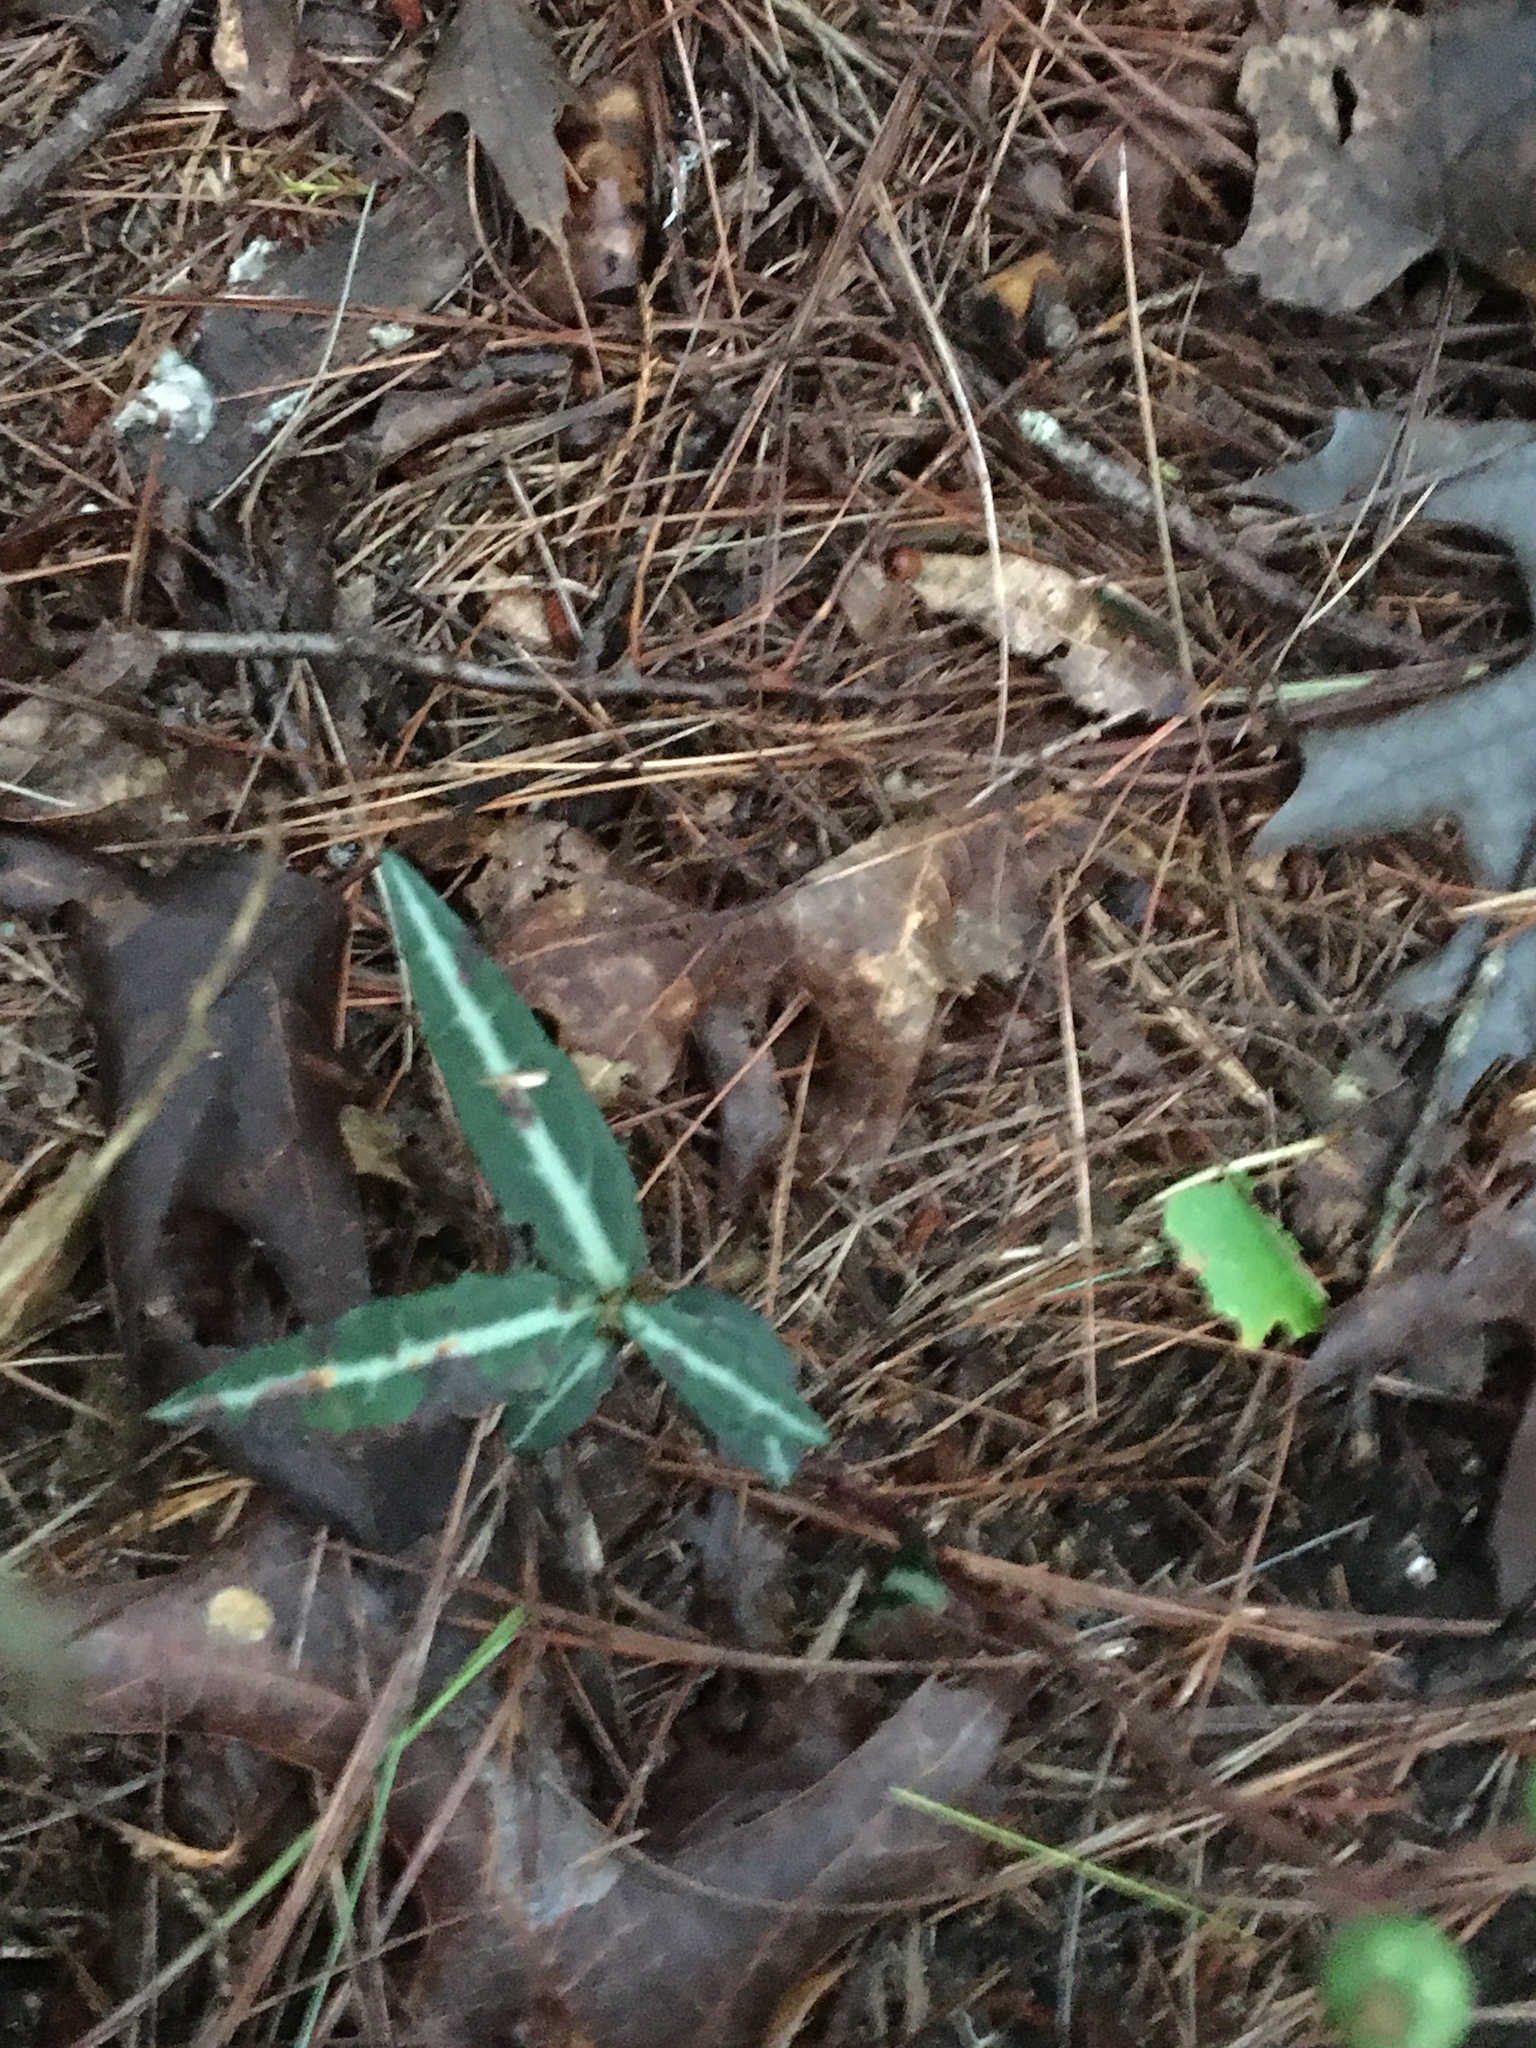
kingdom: Plantae
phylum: Tracheophyta
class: Magnoliopsida
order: Ericales
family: Ericaceae
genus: Chimaphila
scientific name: Chimaphila maculata
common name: Spotted pipsissewa
